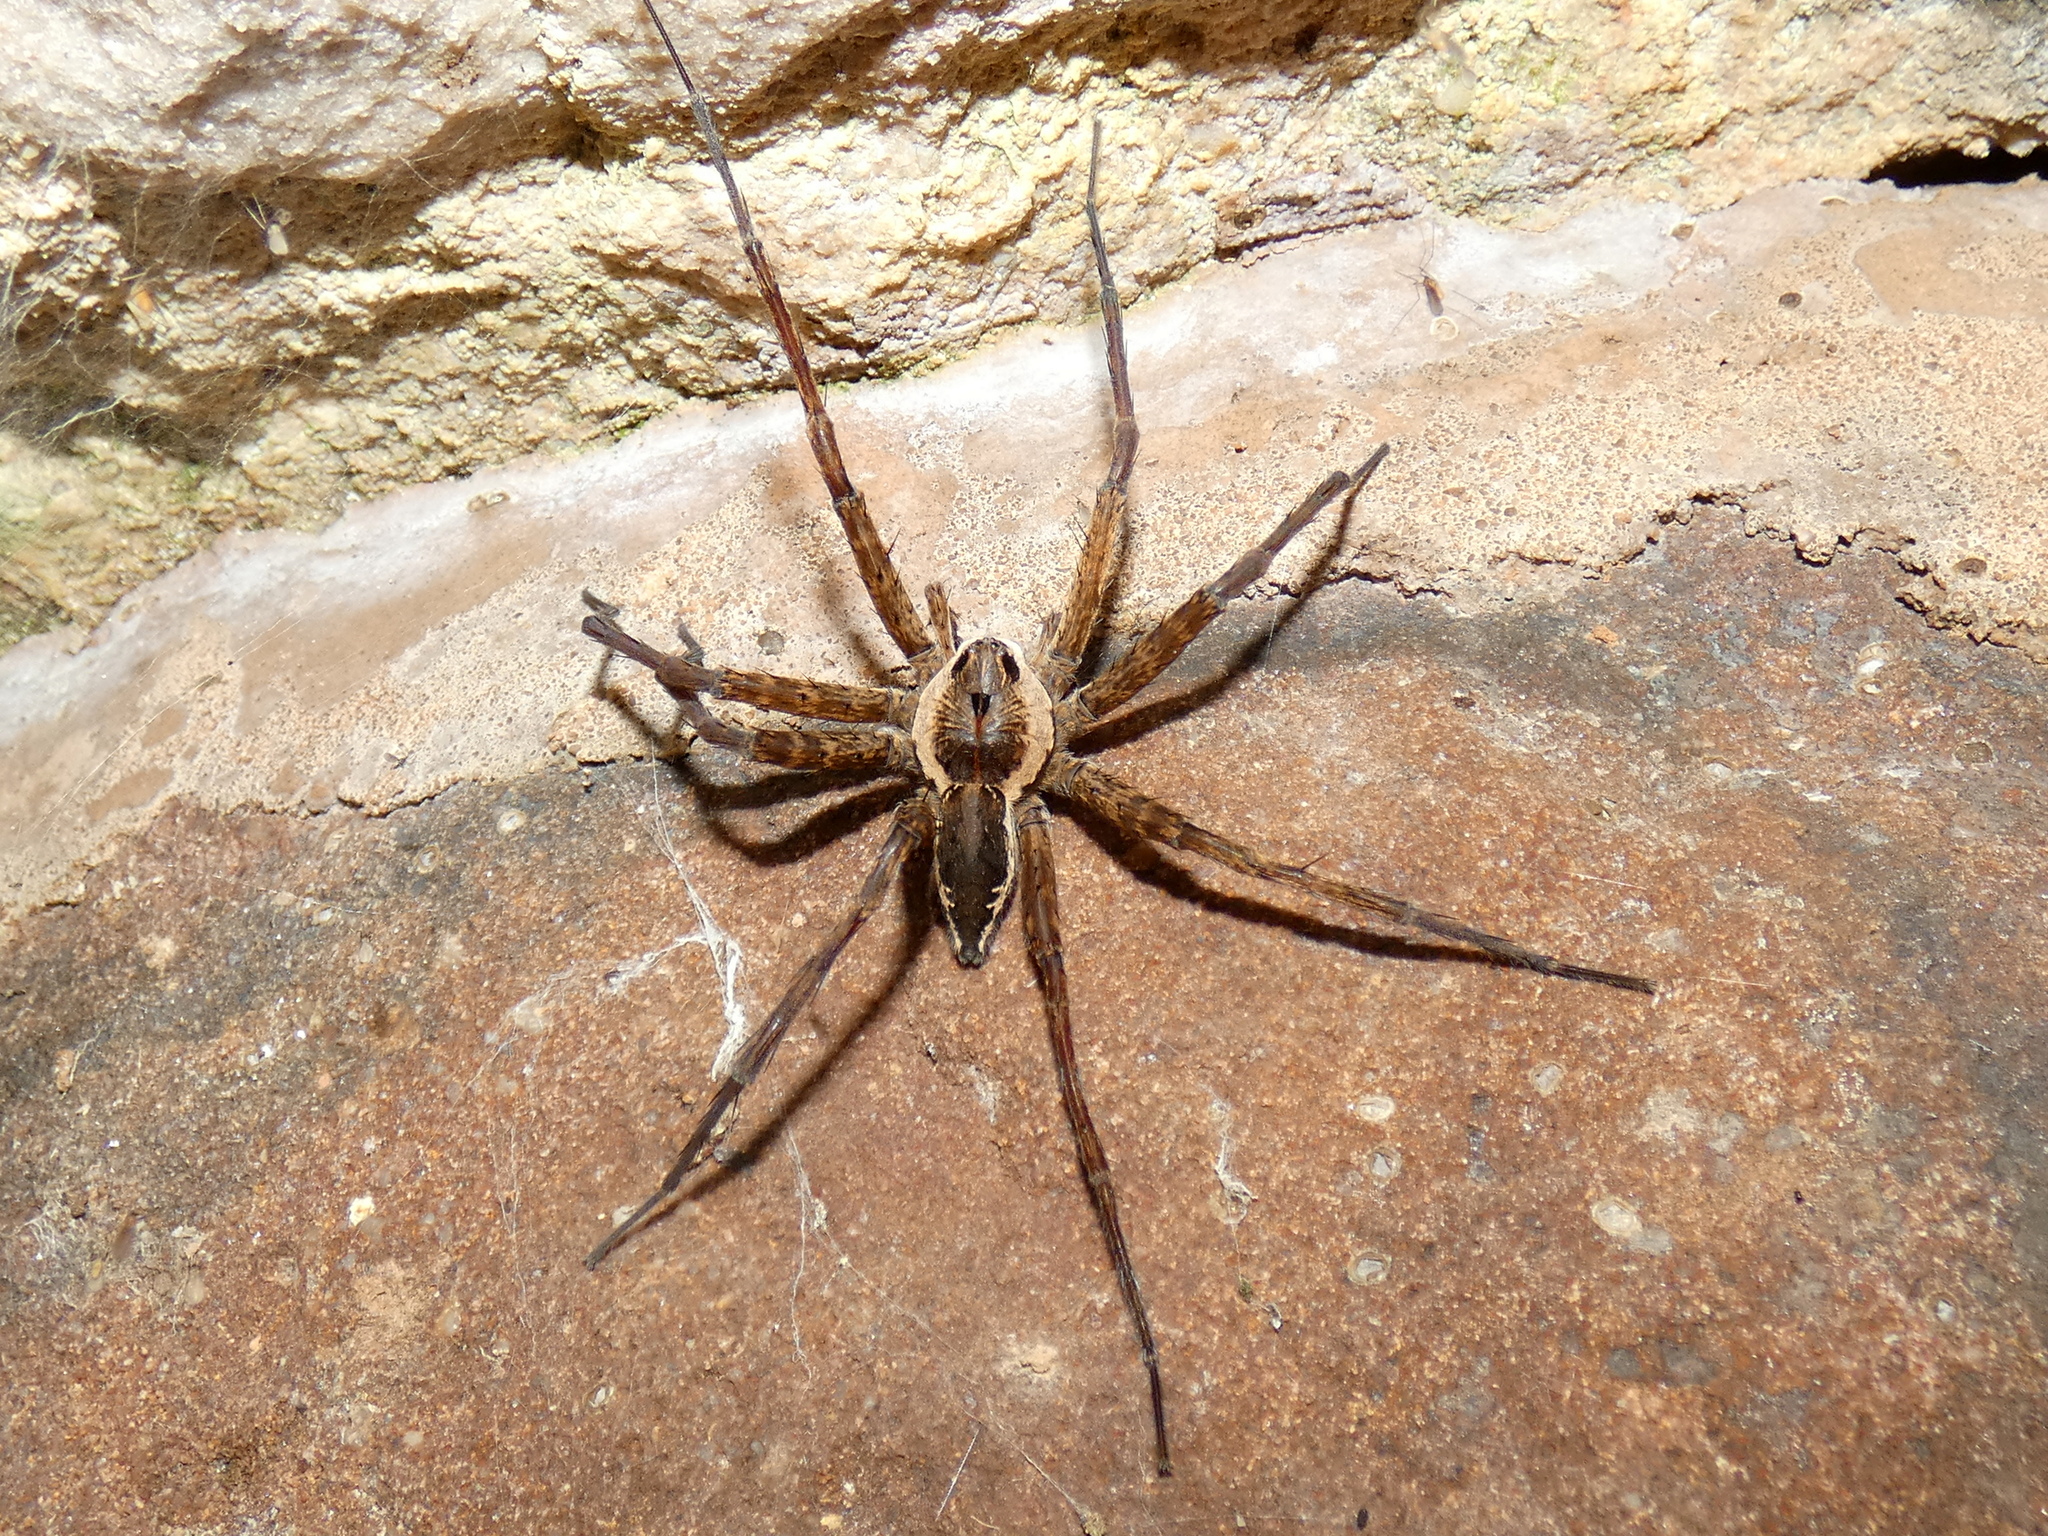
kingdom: Animalia
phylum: Arthropoda
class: Arachnida
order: Araneae
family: Pisauridae
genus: Dolomedes
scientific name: Dolomedes vittatus
